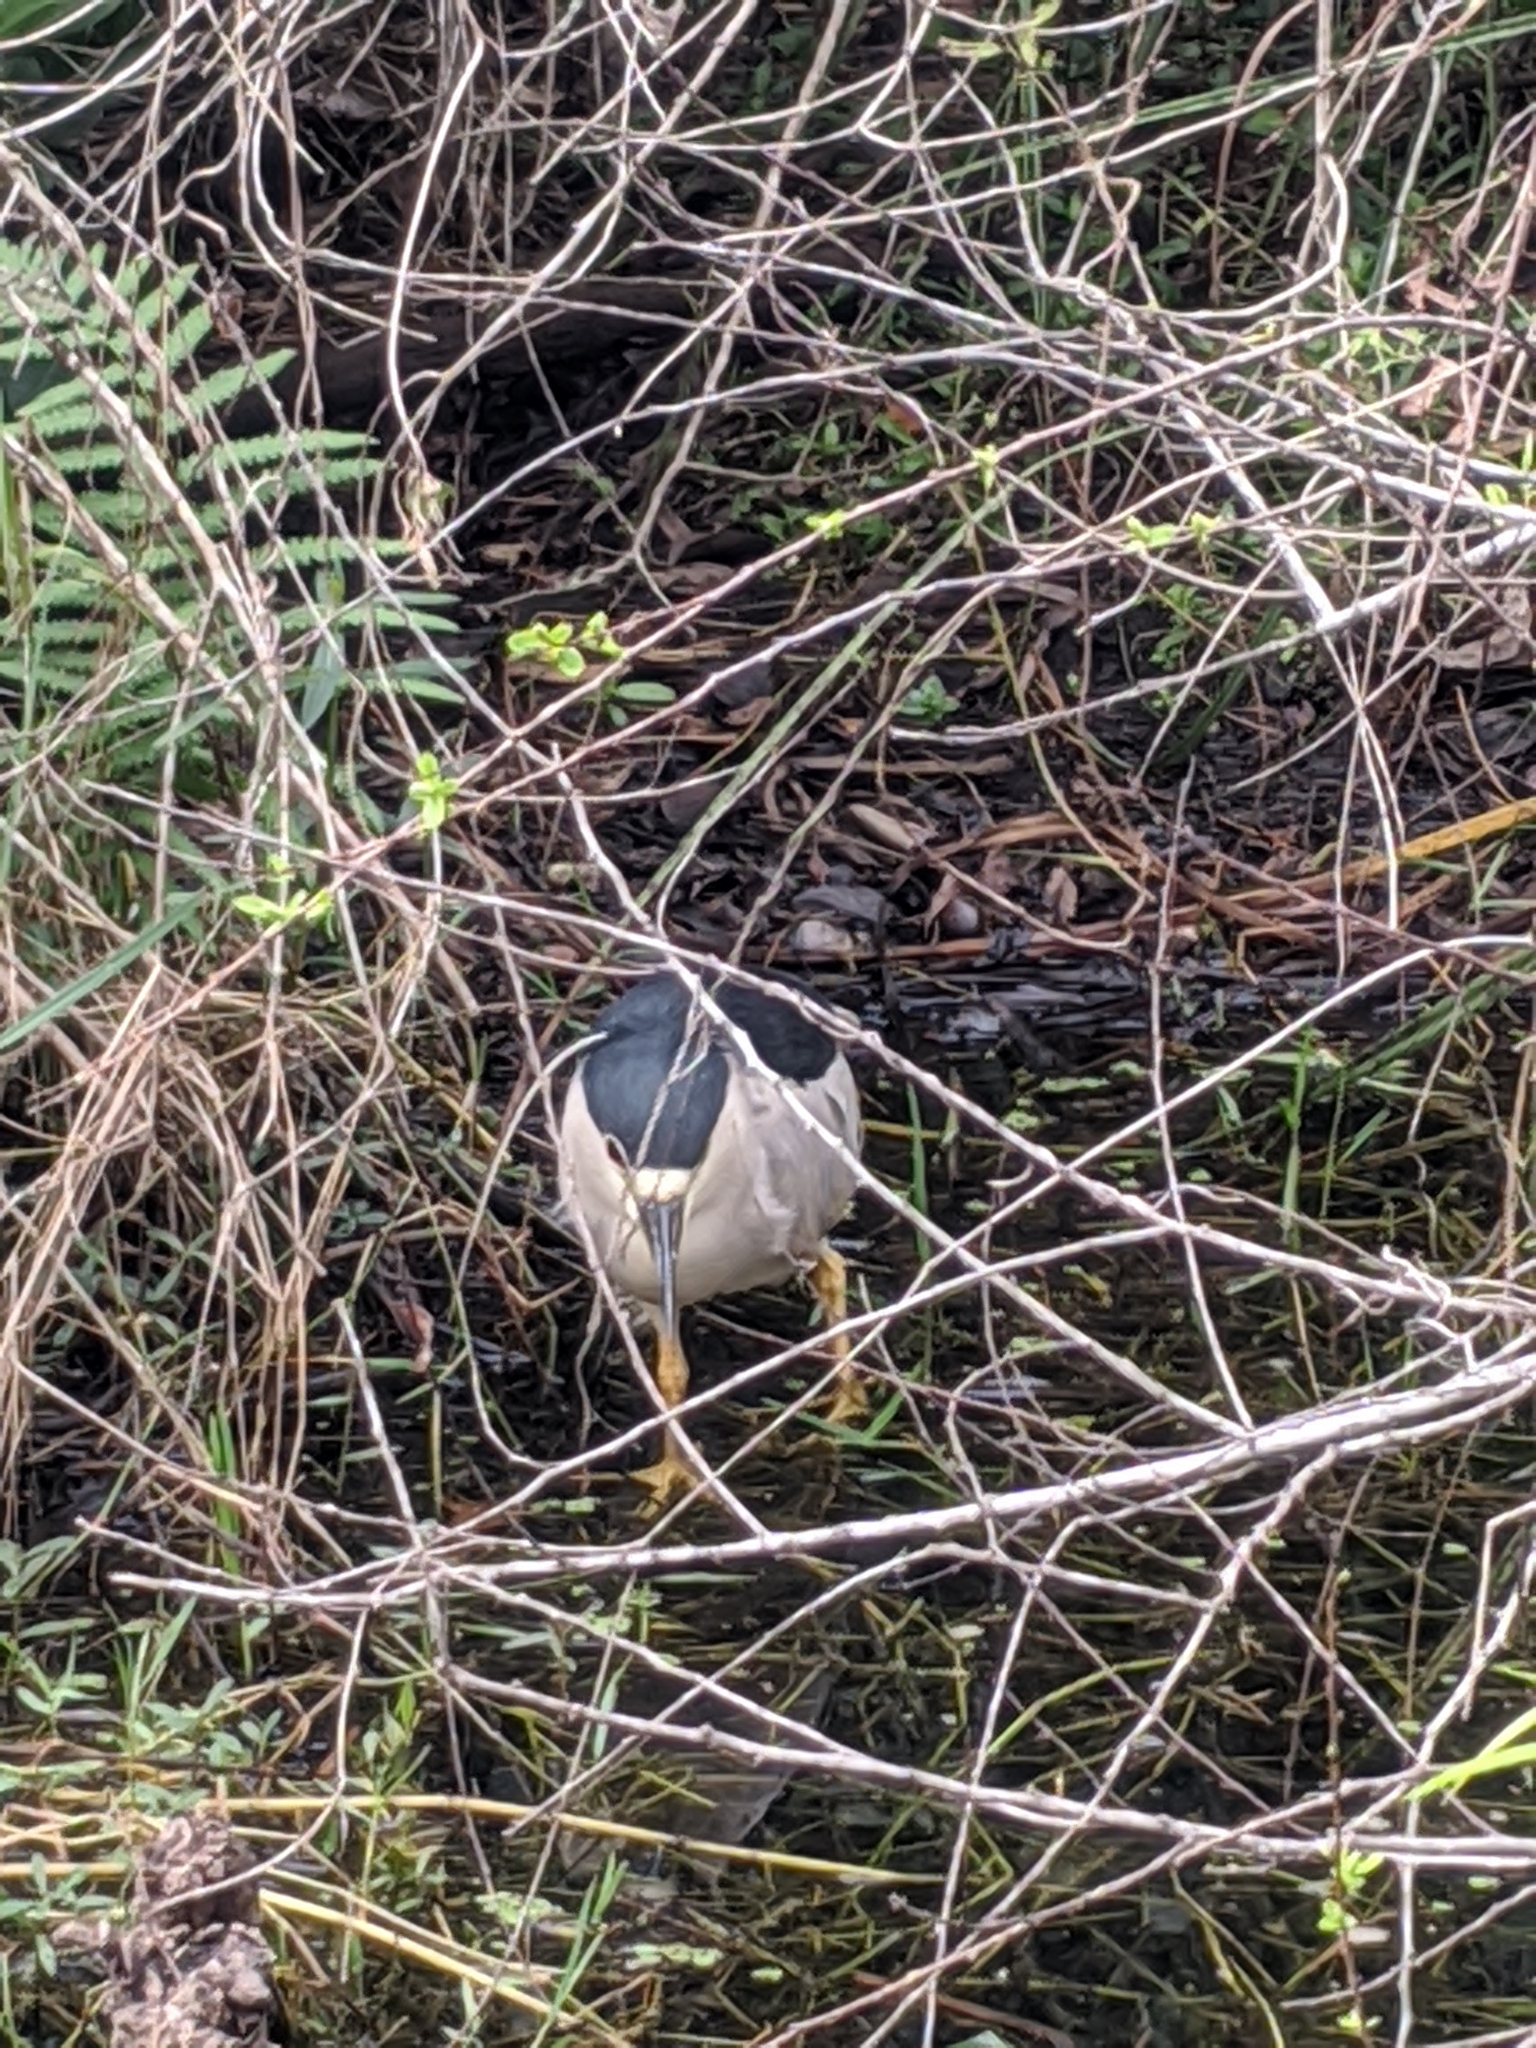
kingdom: Animalia
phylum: Chordata
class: Aves
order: Pelecaniformes
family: Ardeidae
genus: Nycticorax
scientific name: Nycticorax nycticorax
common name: Black-crowned night heron
